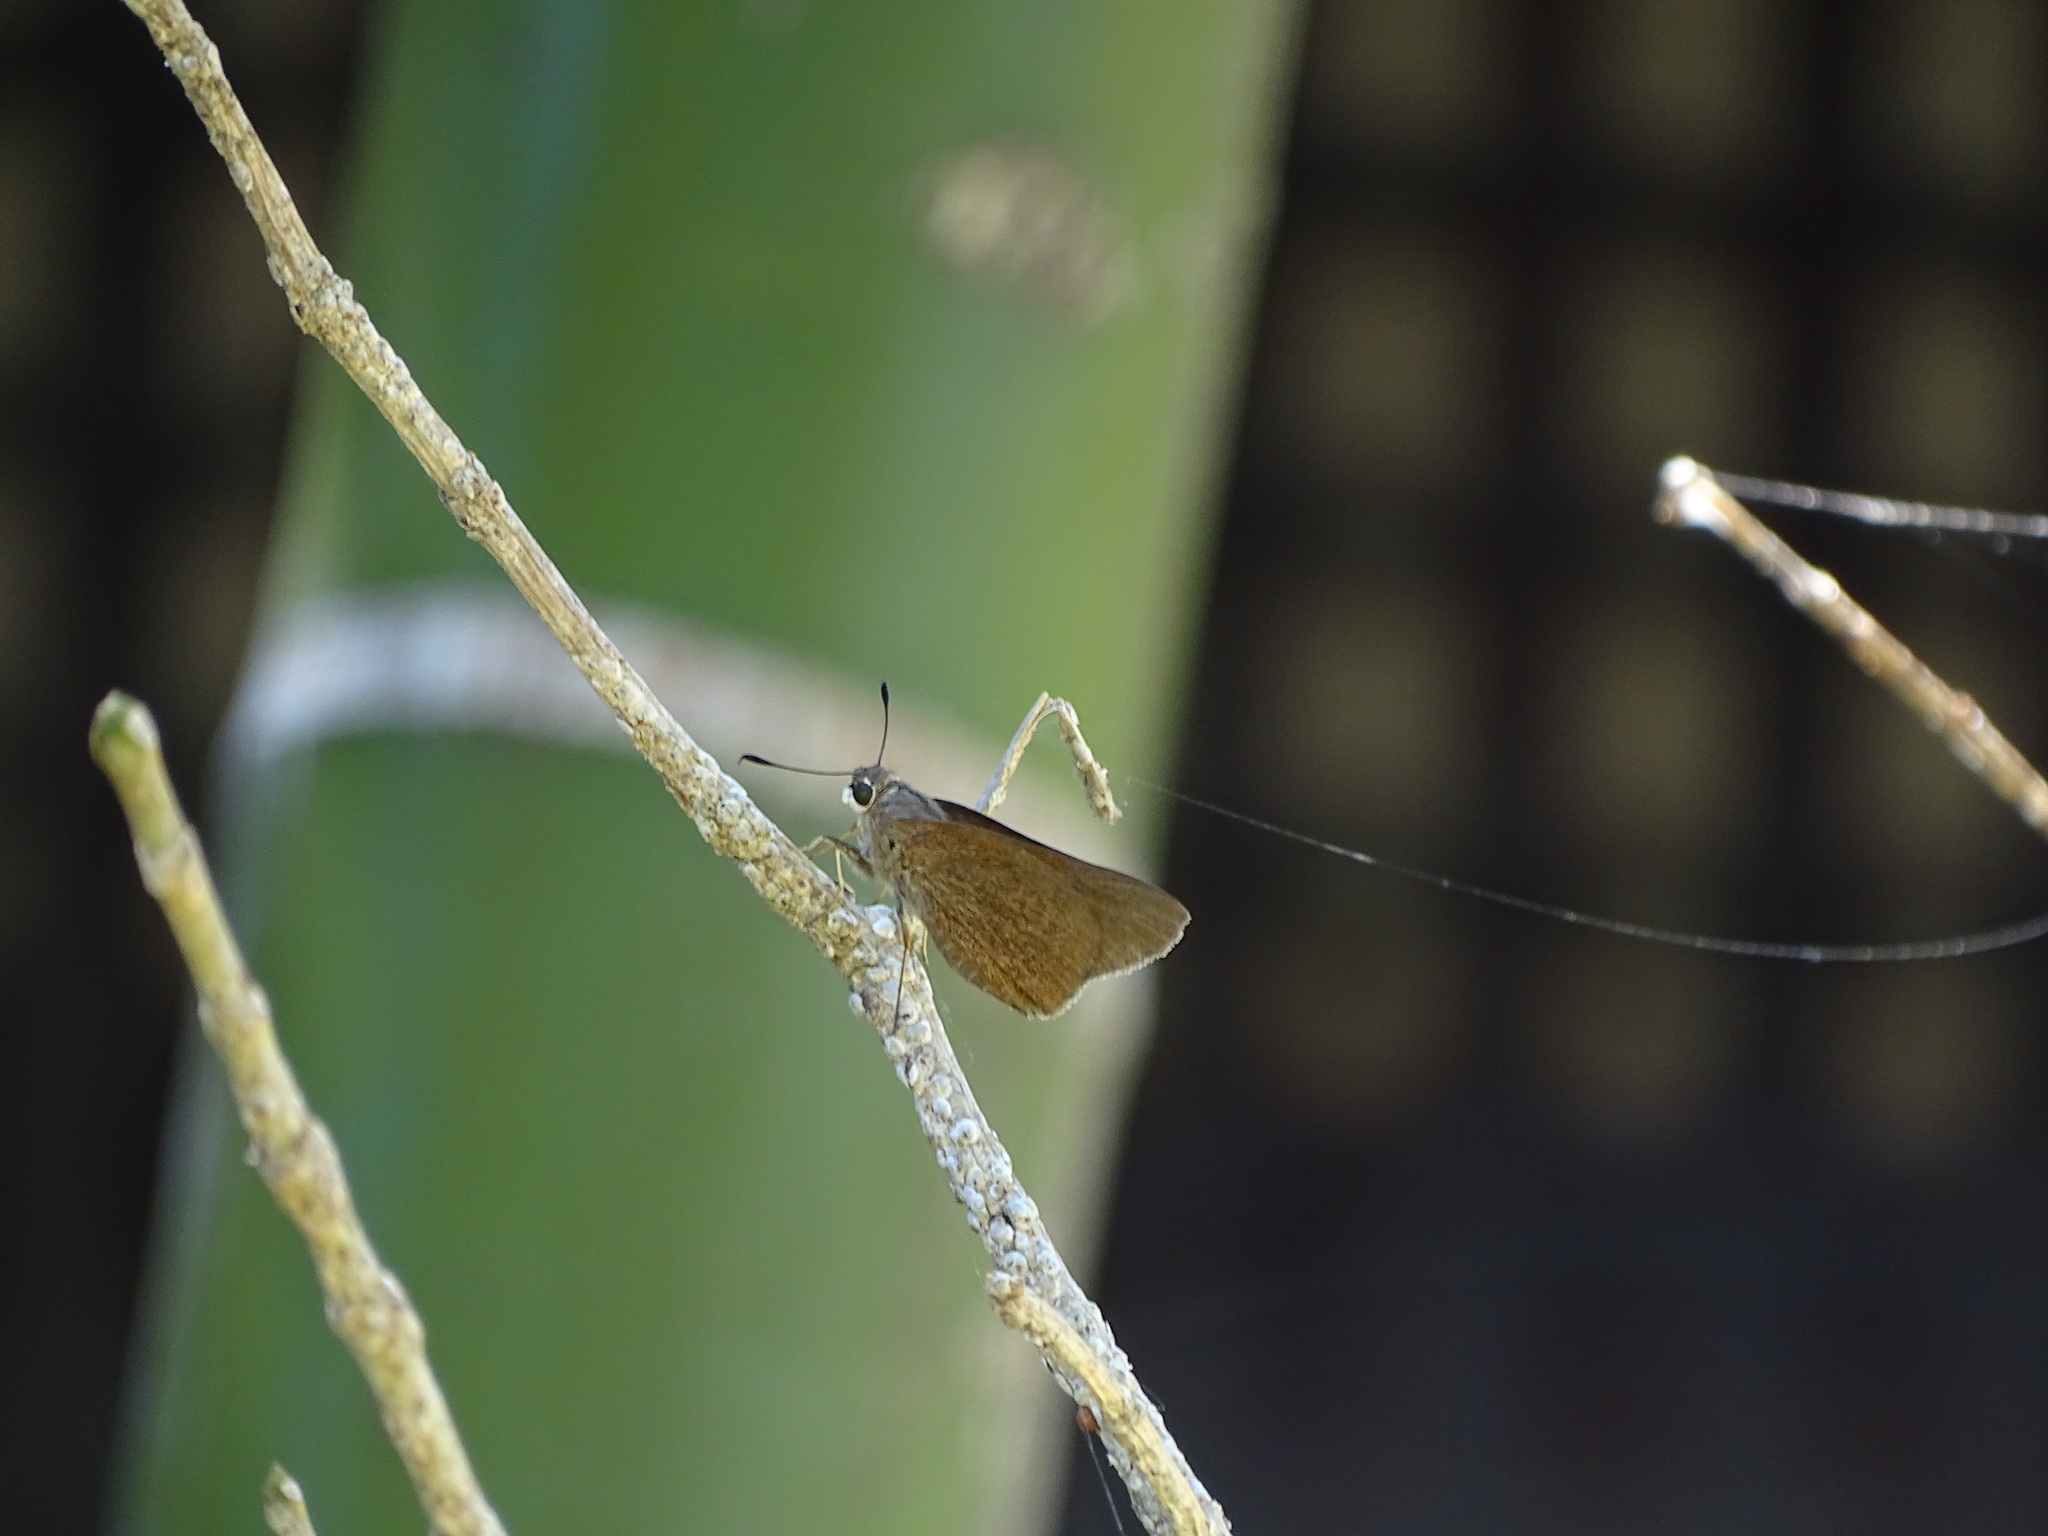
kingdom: Animalia
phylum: Arthropoda
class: Insecta
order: Lepidoptera
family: Hesperiidae
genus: Asbolis
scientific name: Asbolis capucinus
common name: Monk skipper
